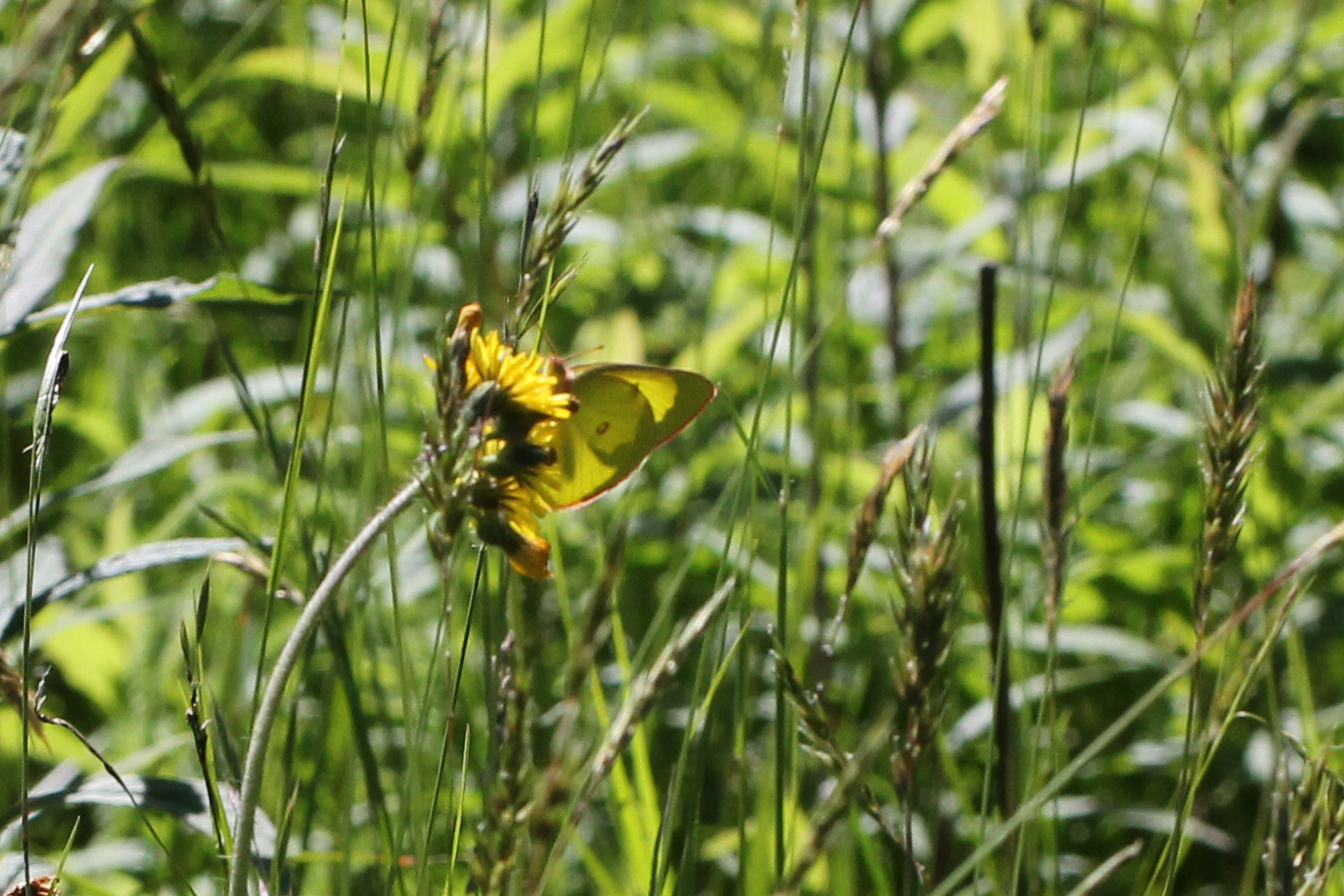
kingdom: Animalia
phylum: Arthropoda
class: Insecta
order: Lepidoptera
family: Pieridae
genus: Colias
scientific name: Colias interior
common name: Pink-edged sulphur
